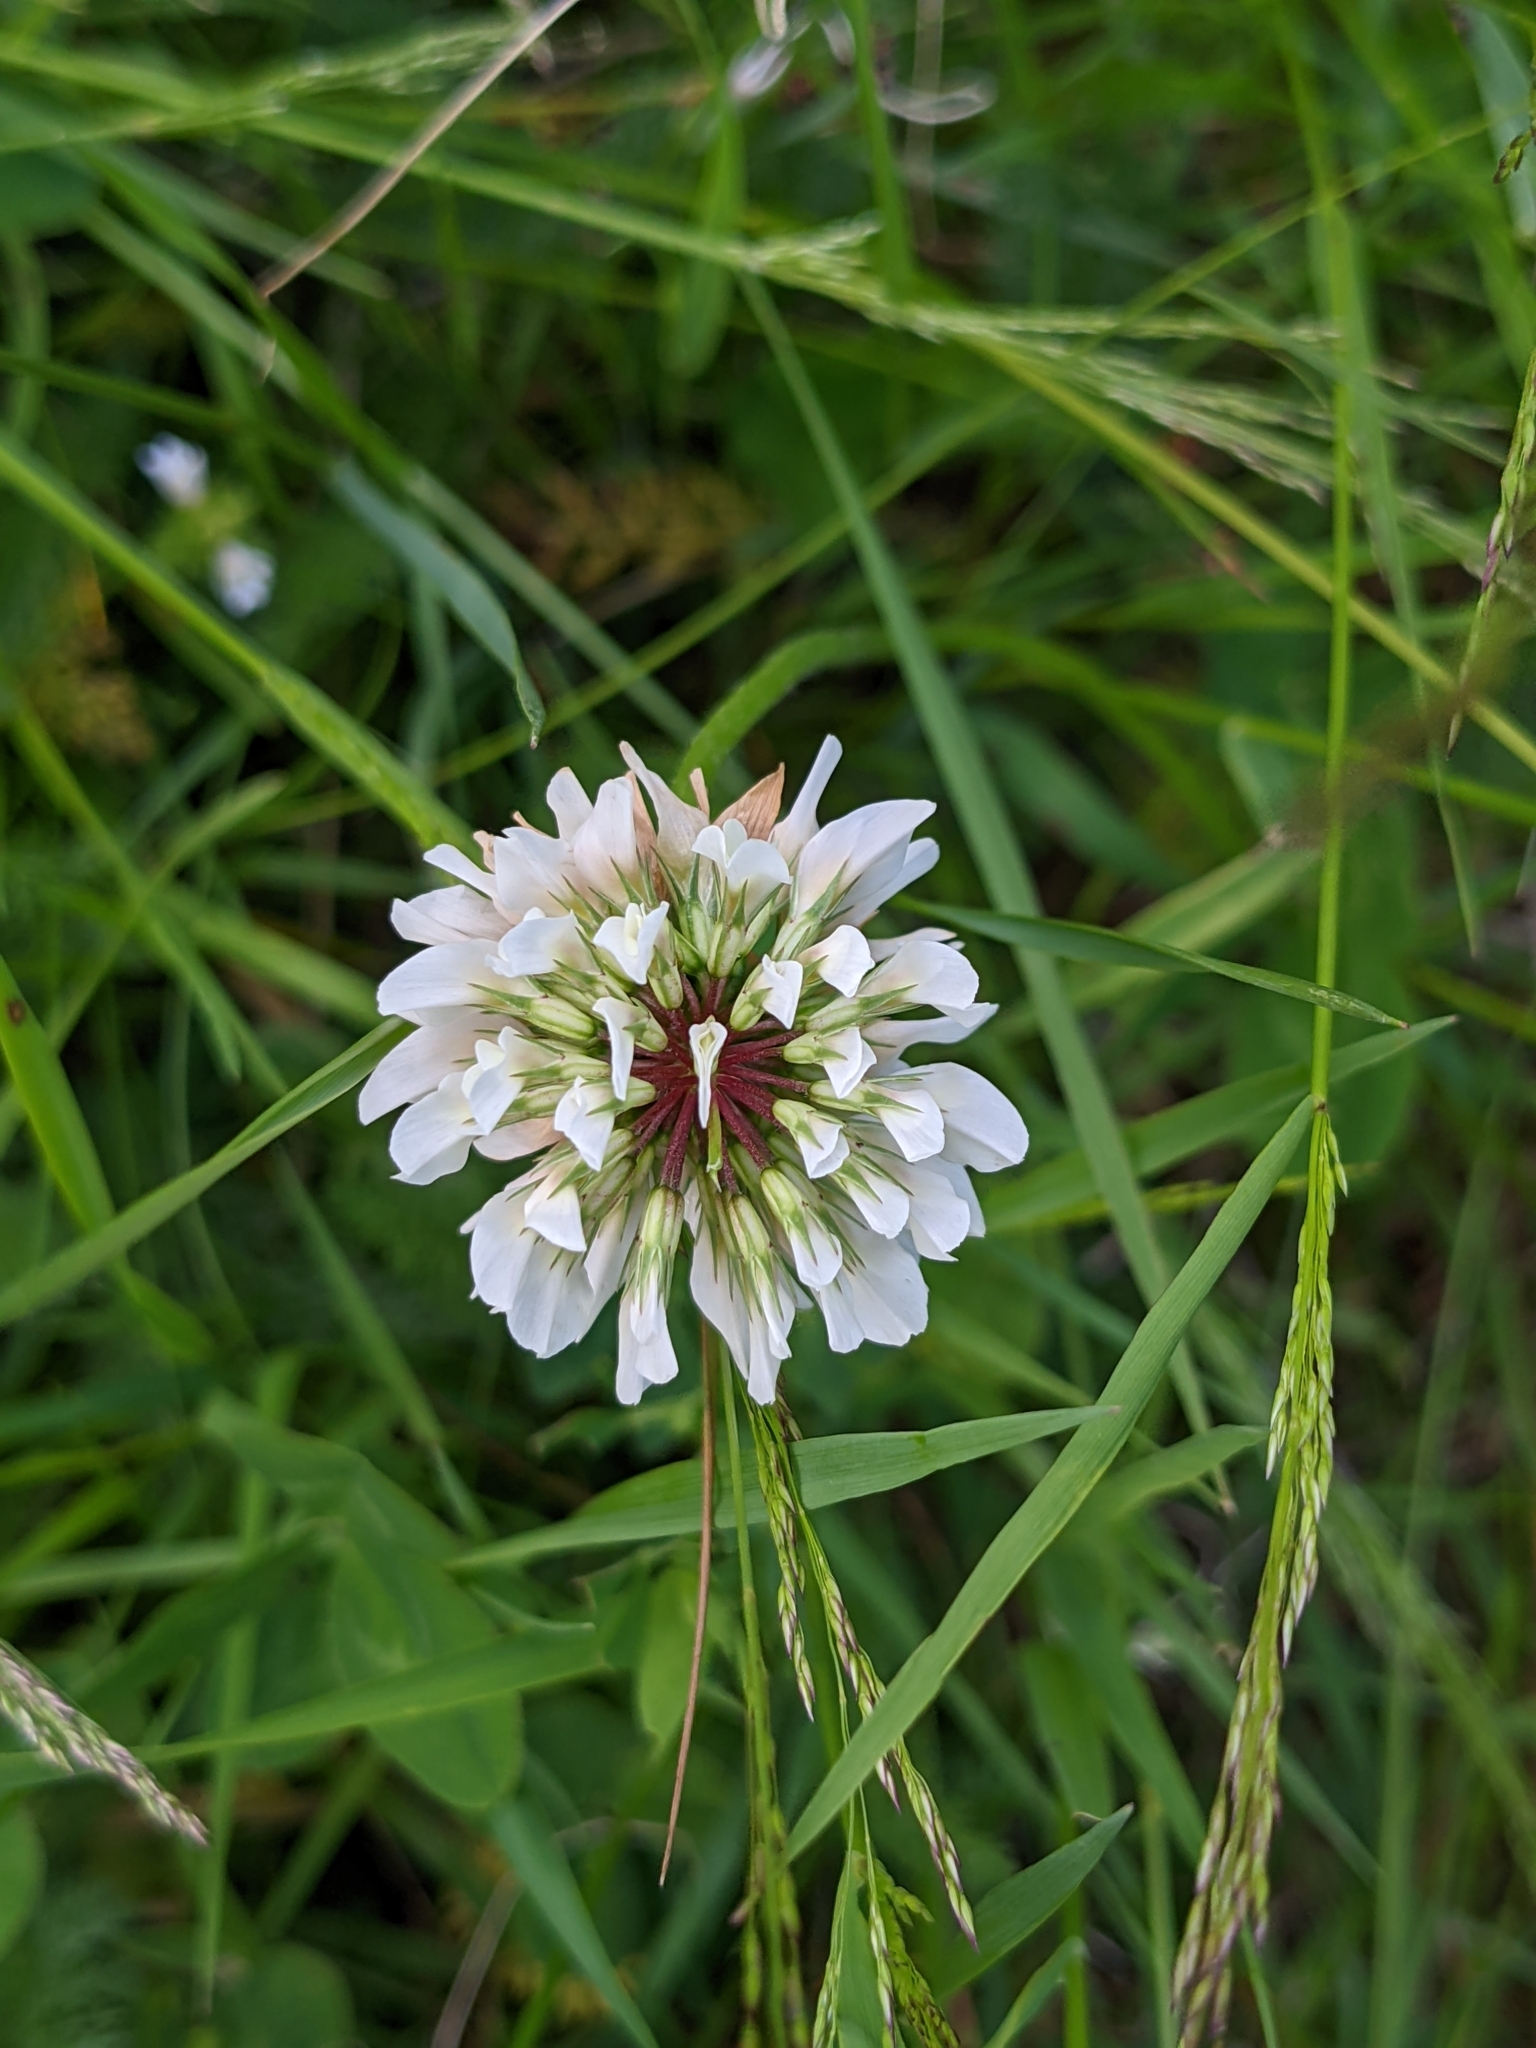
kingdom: Plantae
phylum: Tracheophyta
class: Magnoliopsida
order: Fabales
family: Fabaceae
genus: Trifolium
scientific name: Trifolium repens
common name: White clover
